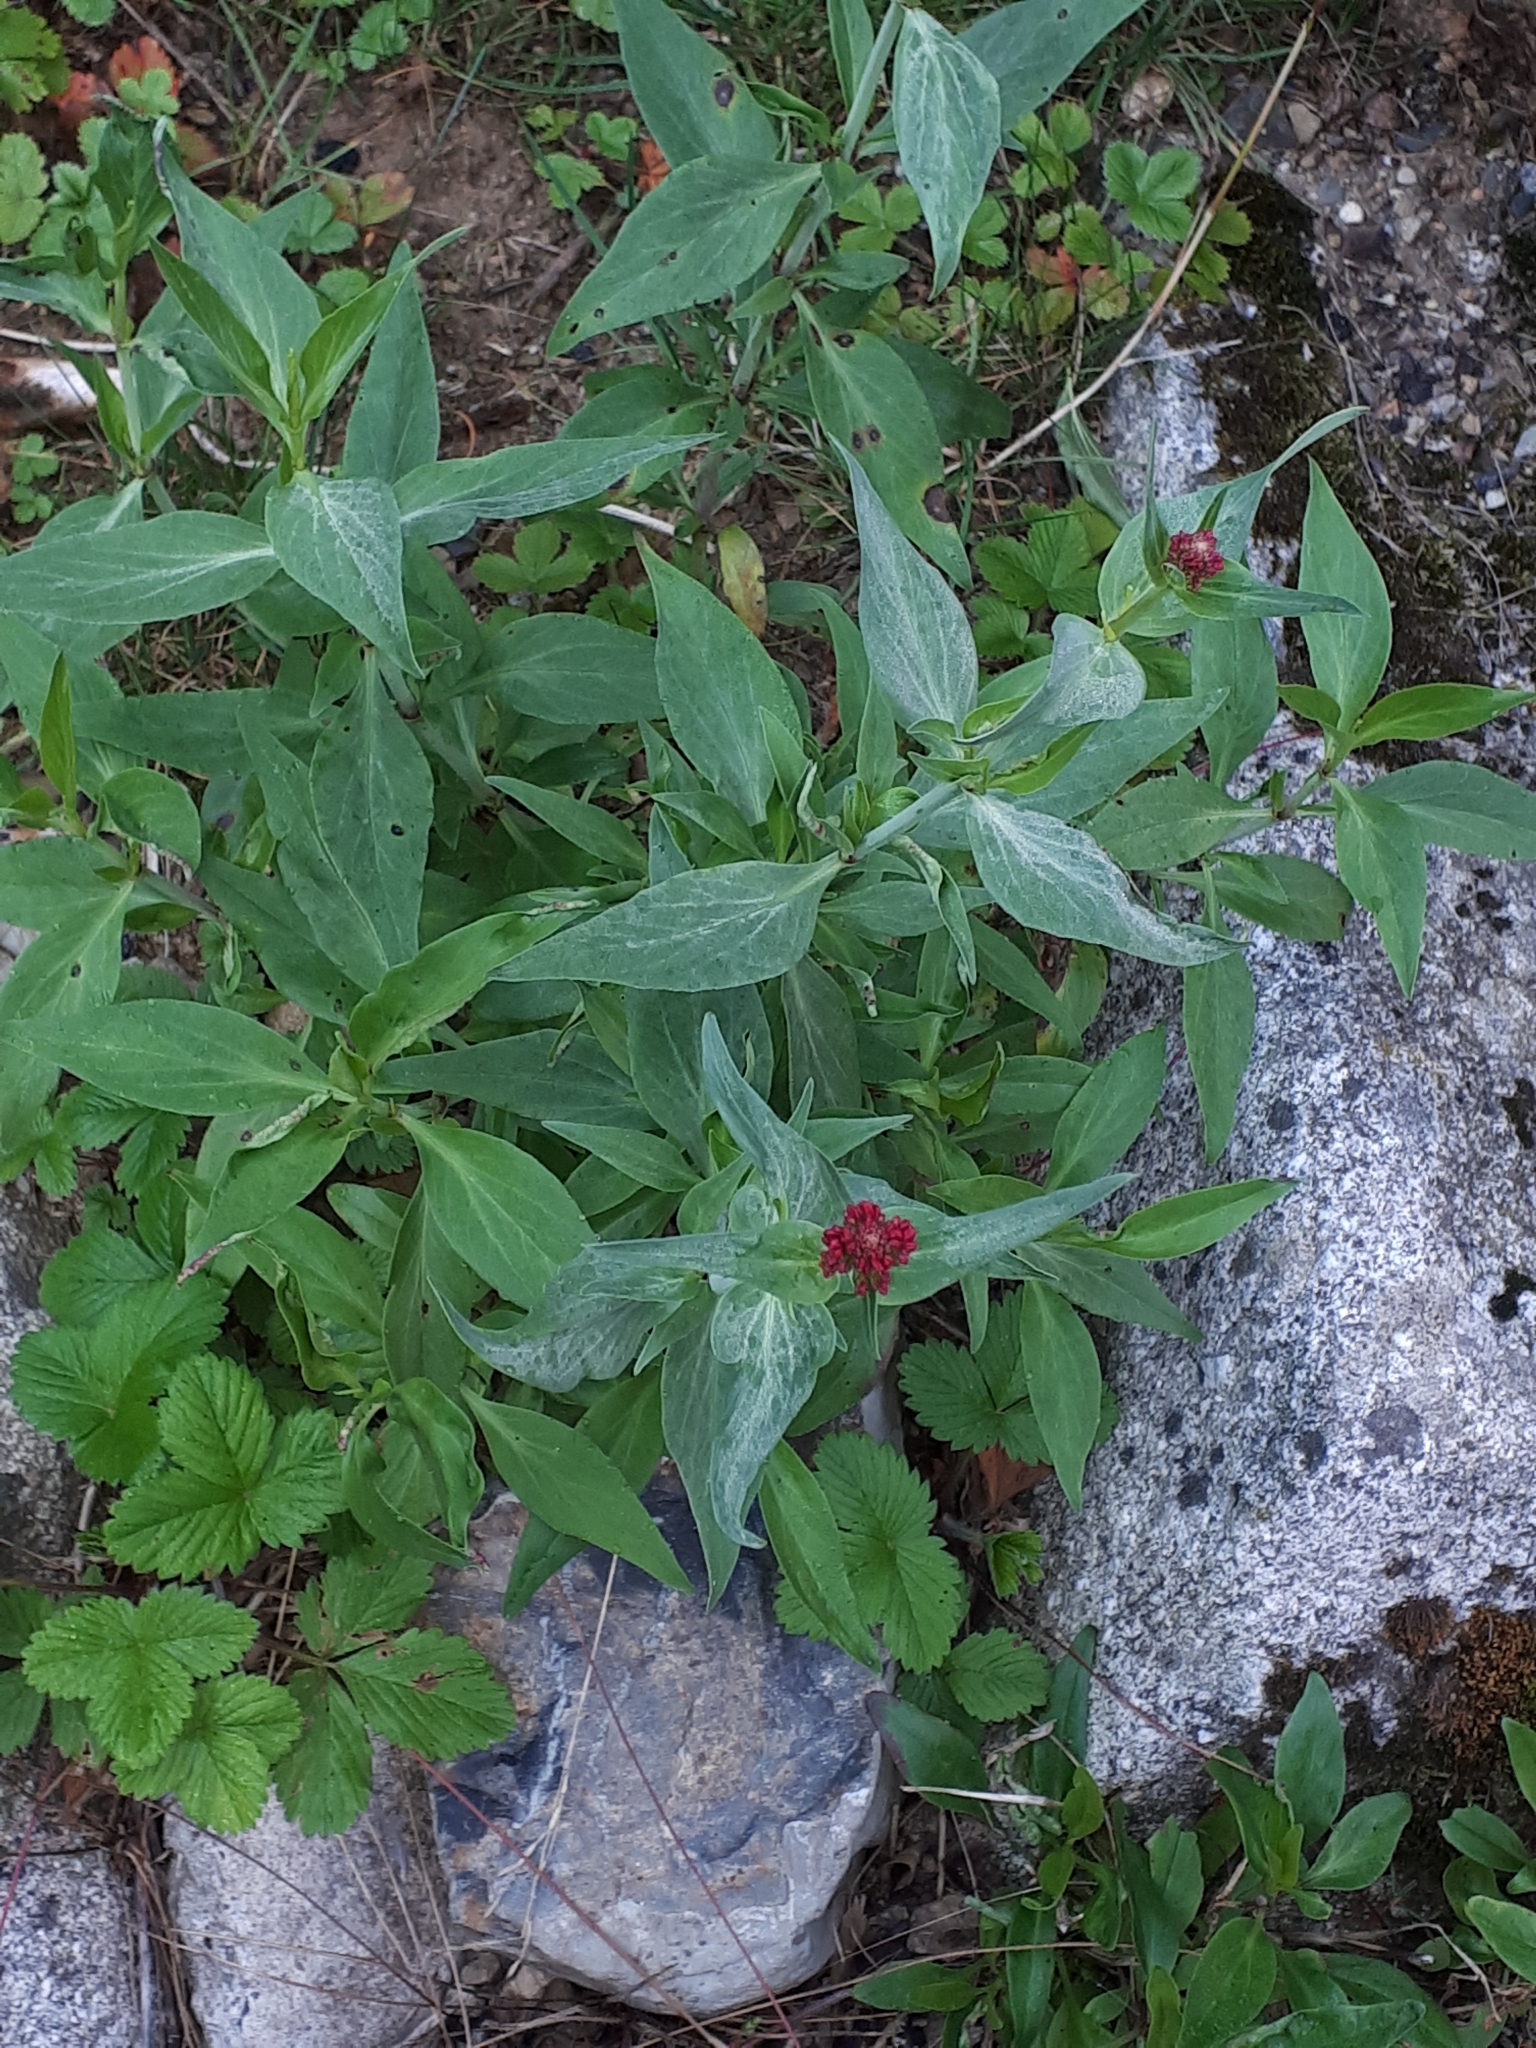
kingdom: Plantae
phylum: Tracheophyta
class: Magnoliopsida
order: Dipsacales
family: Caprifoliaceae
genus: Centranthus
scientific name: Centranthus ruber
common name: Red valerian
